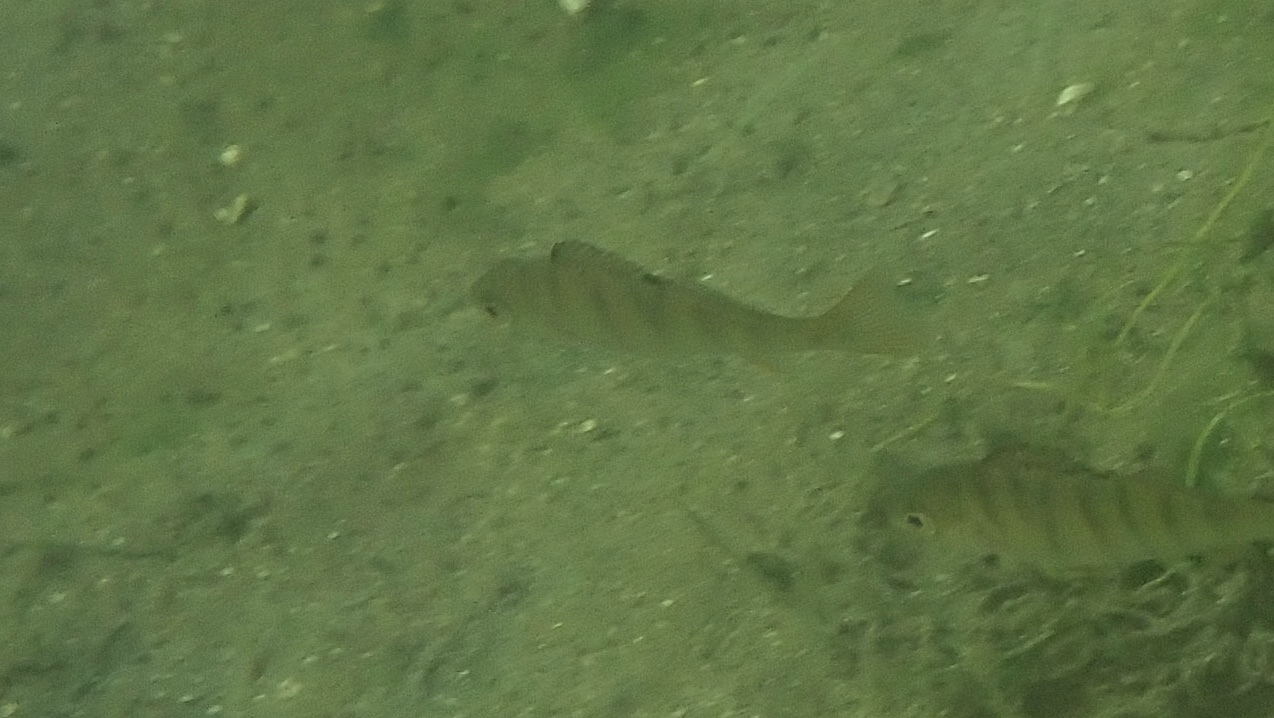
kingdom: Animalia
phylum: Chordata
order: Perciformes
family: Percidae
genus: Perca
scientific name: Perca fluviatilis
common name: Perch
